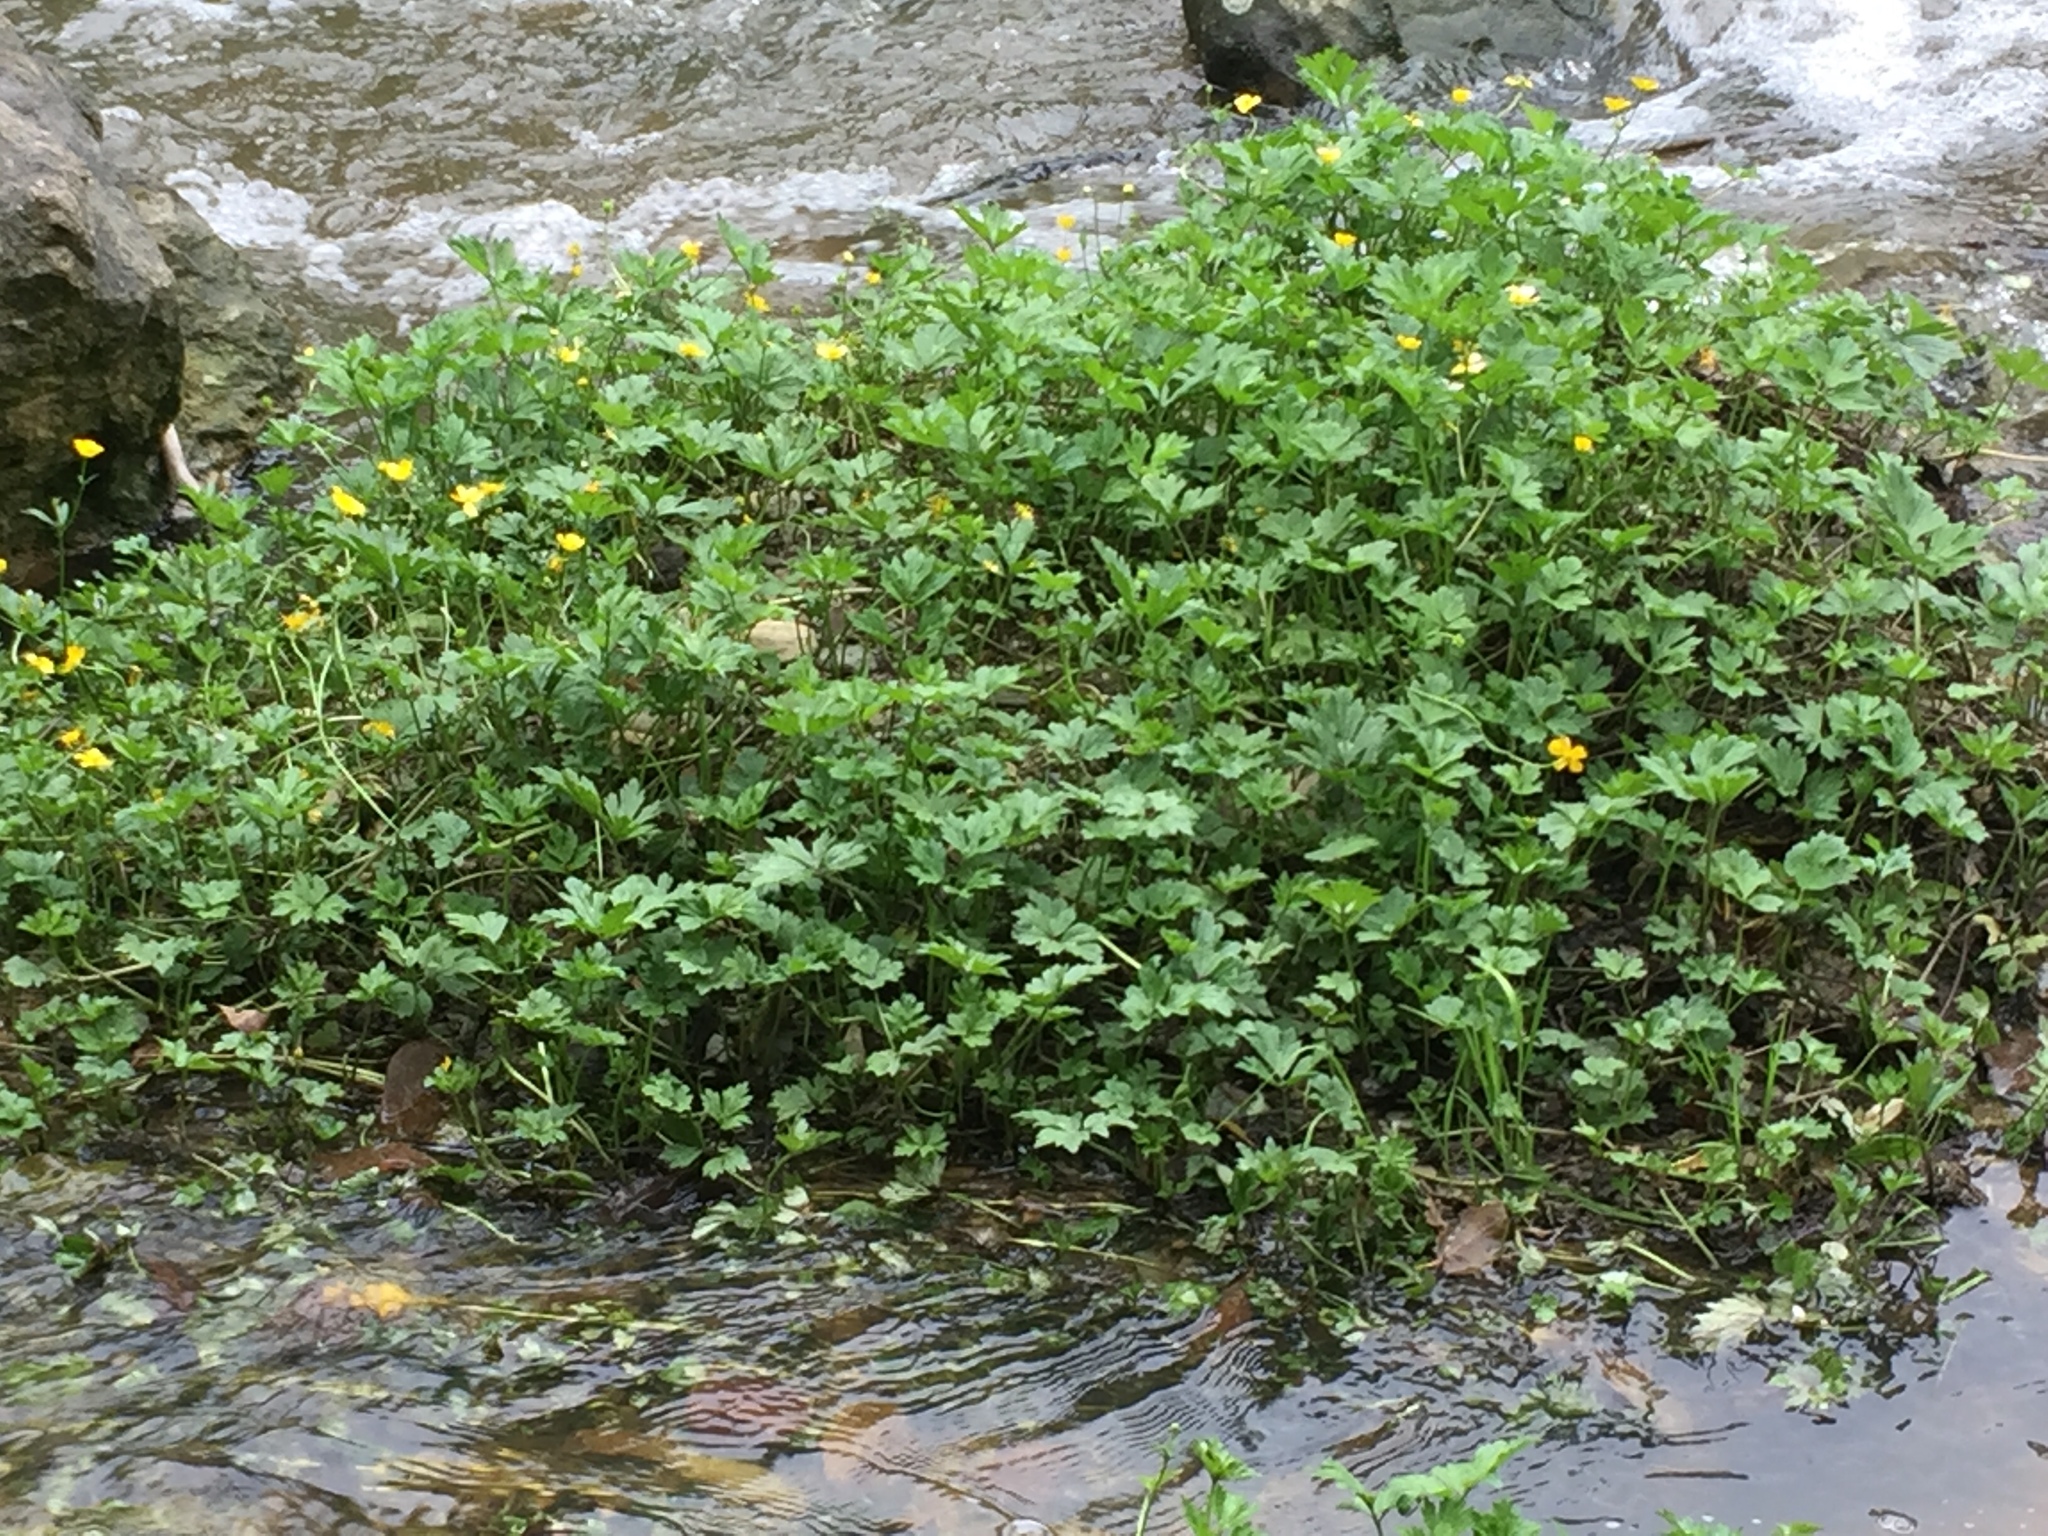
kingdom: Plantae
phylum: Tracheophyta
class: Magnoliopsida
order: Ranunculales
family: Ranunculaceae
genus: Ranunculus
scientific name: Ranunculus repens
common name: Creeping buttercup
